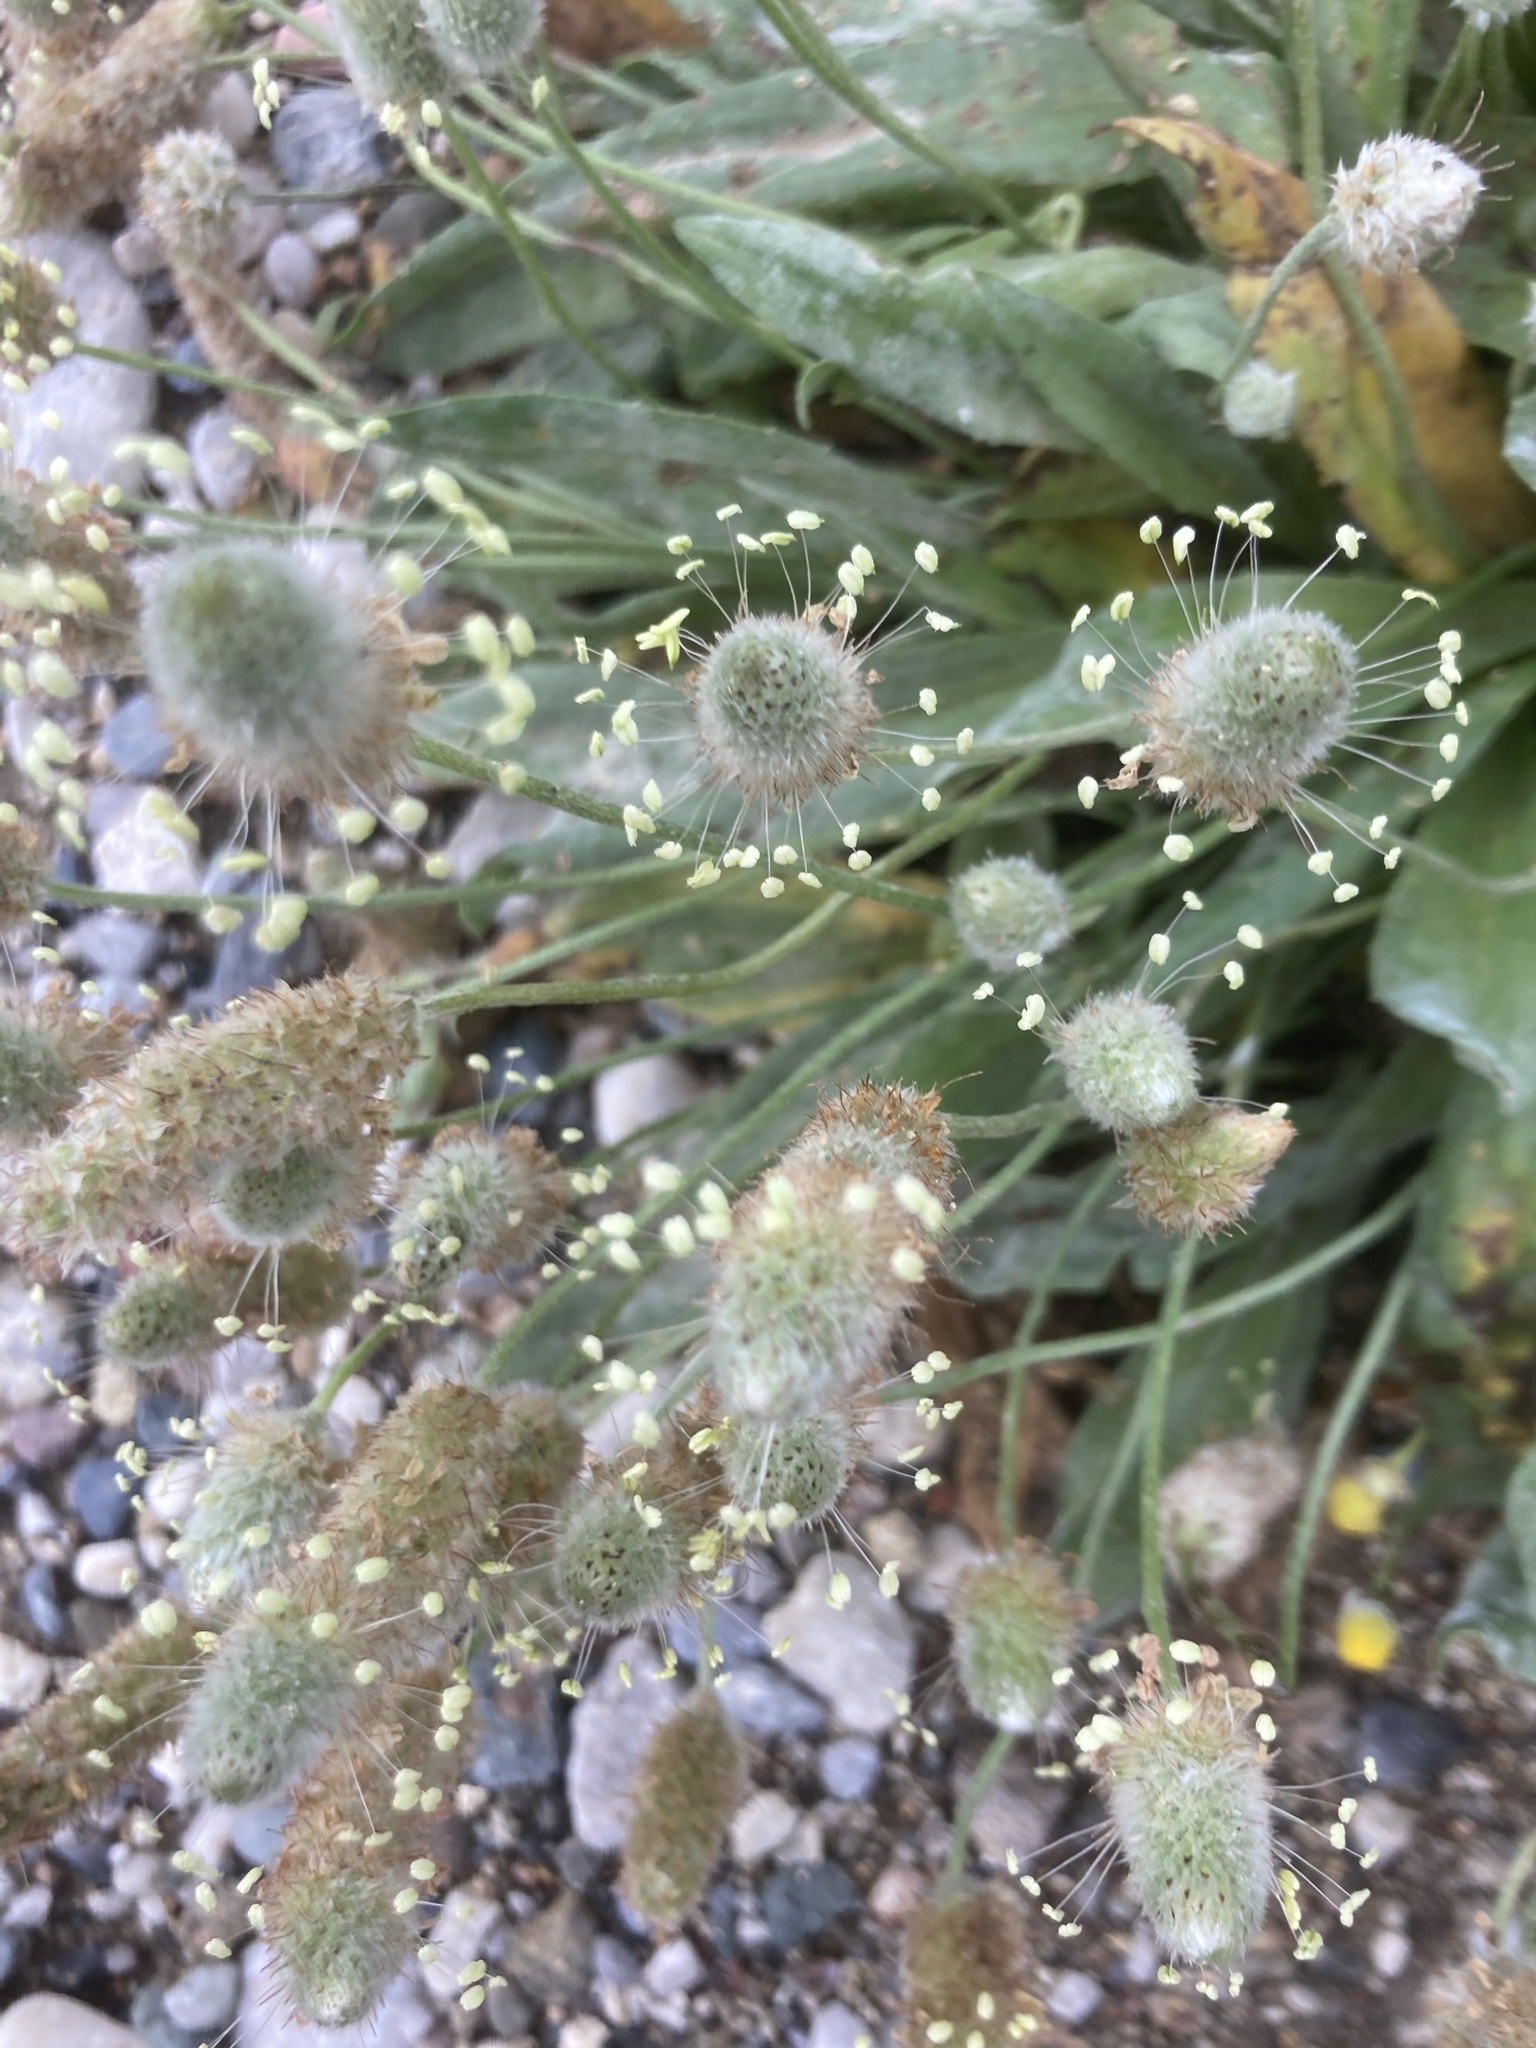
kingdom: Plantae
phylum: Tracheophyta
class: Magnoliopsida
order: Lamiales
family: Plantaginaceae
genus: Plantago
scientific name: Plantago lagopus
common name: Hare-foot plantain
